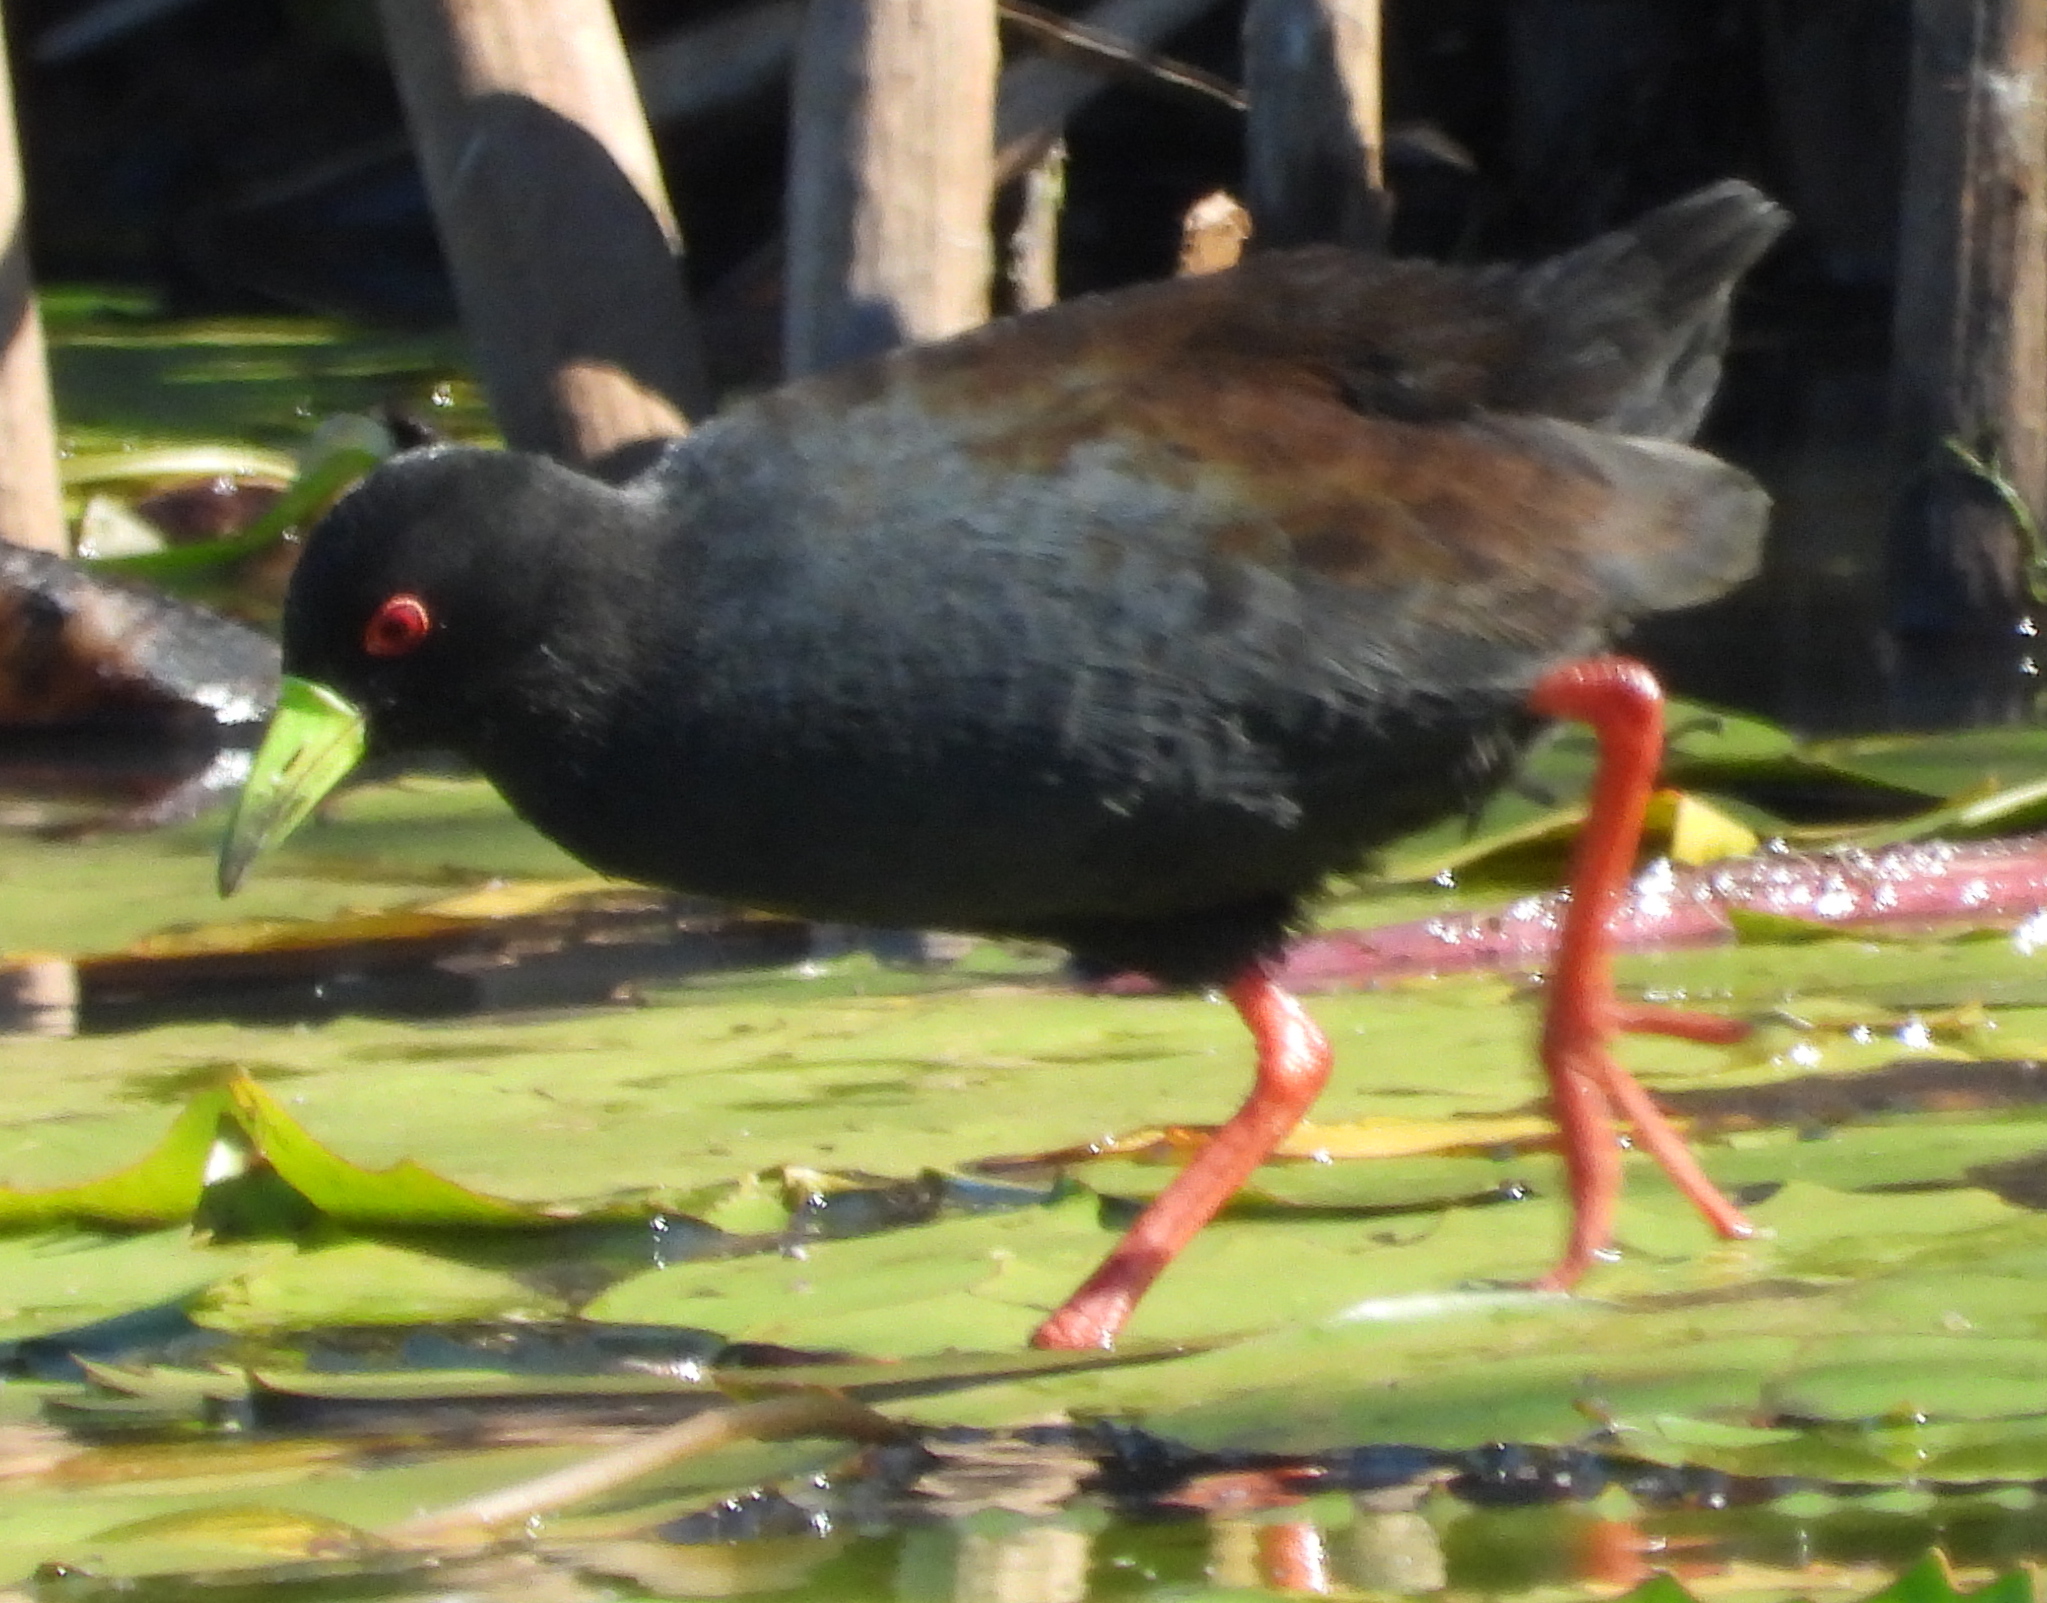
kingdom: Animalia
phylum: Chordata
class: Aves
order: Gruiformes
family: Rallidae
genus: Amaurornis
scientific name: Amaurornis flavirostra
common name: Black crake
